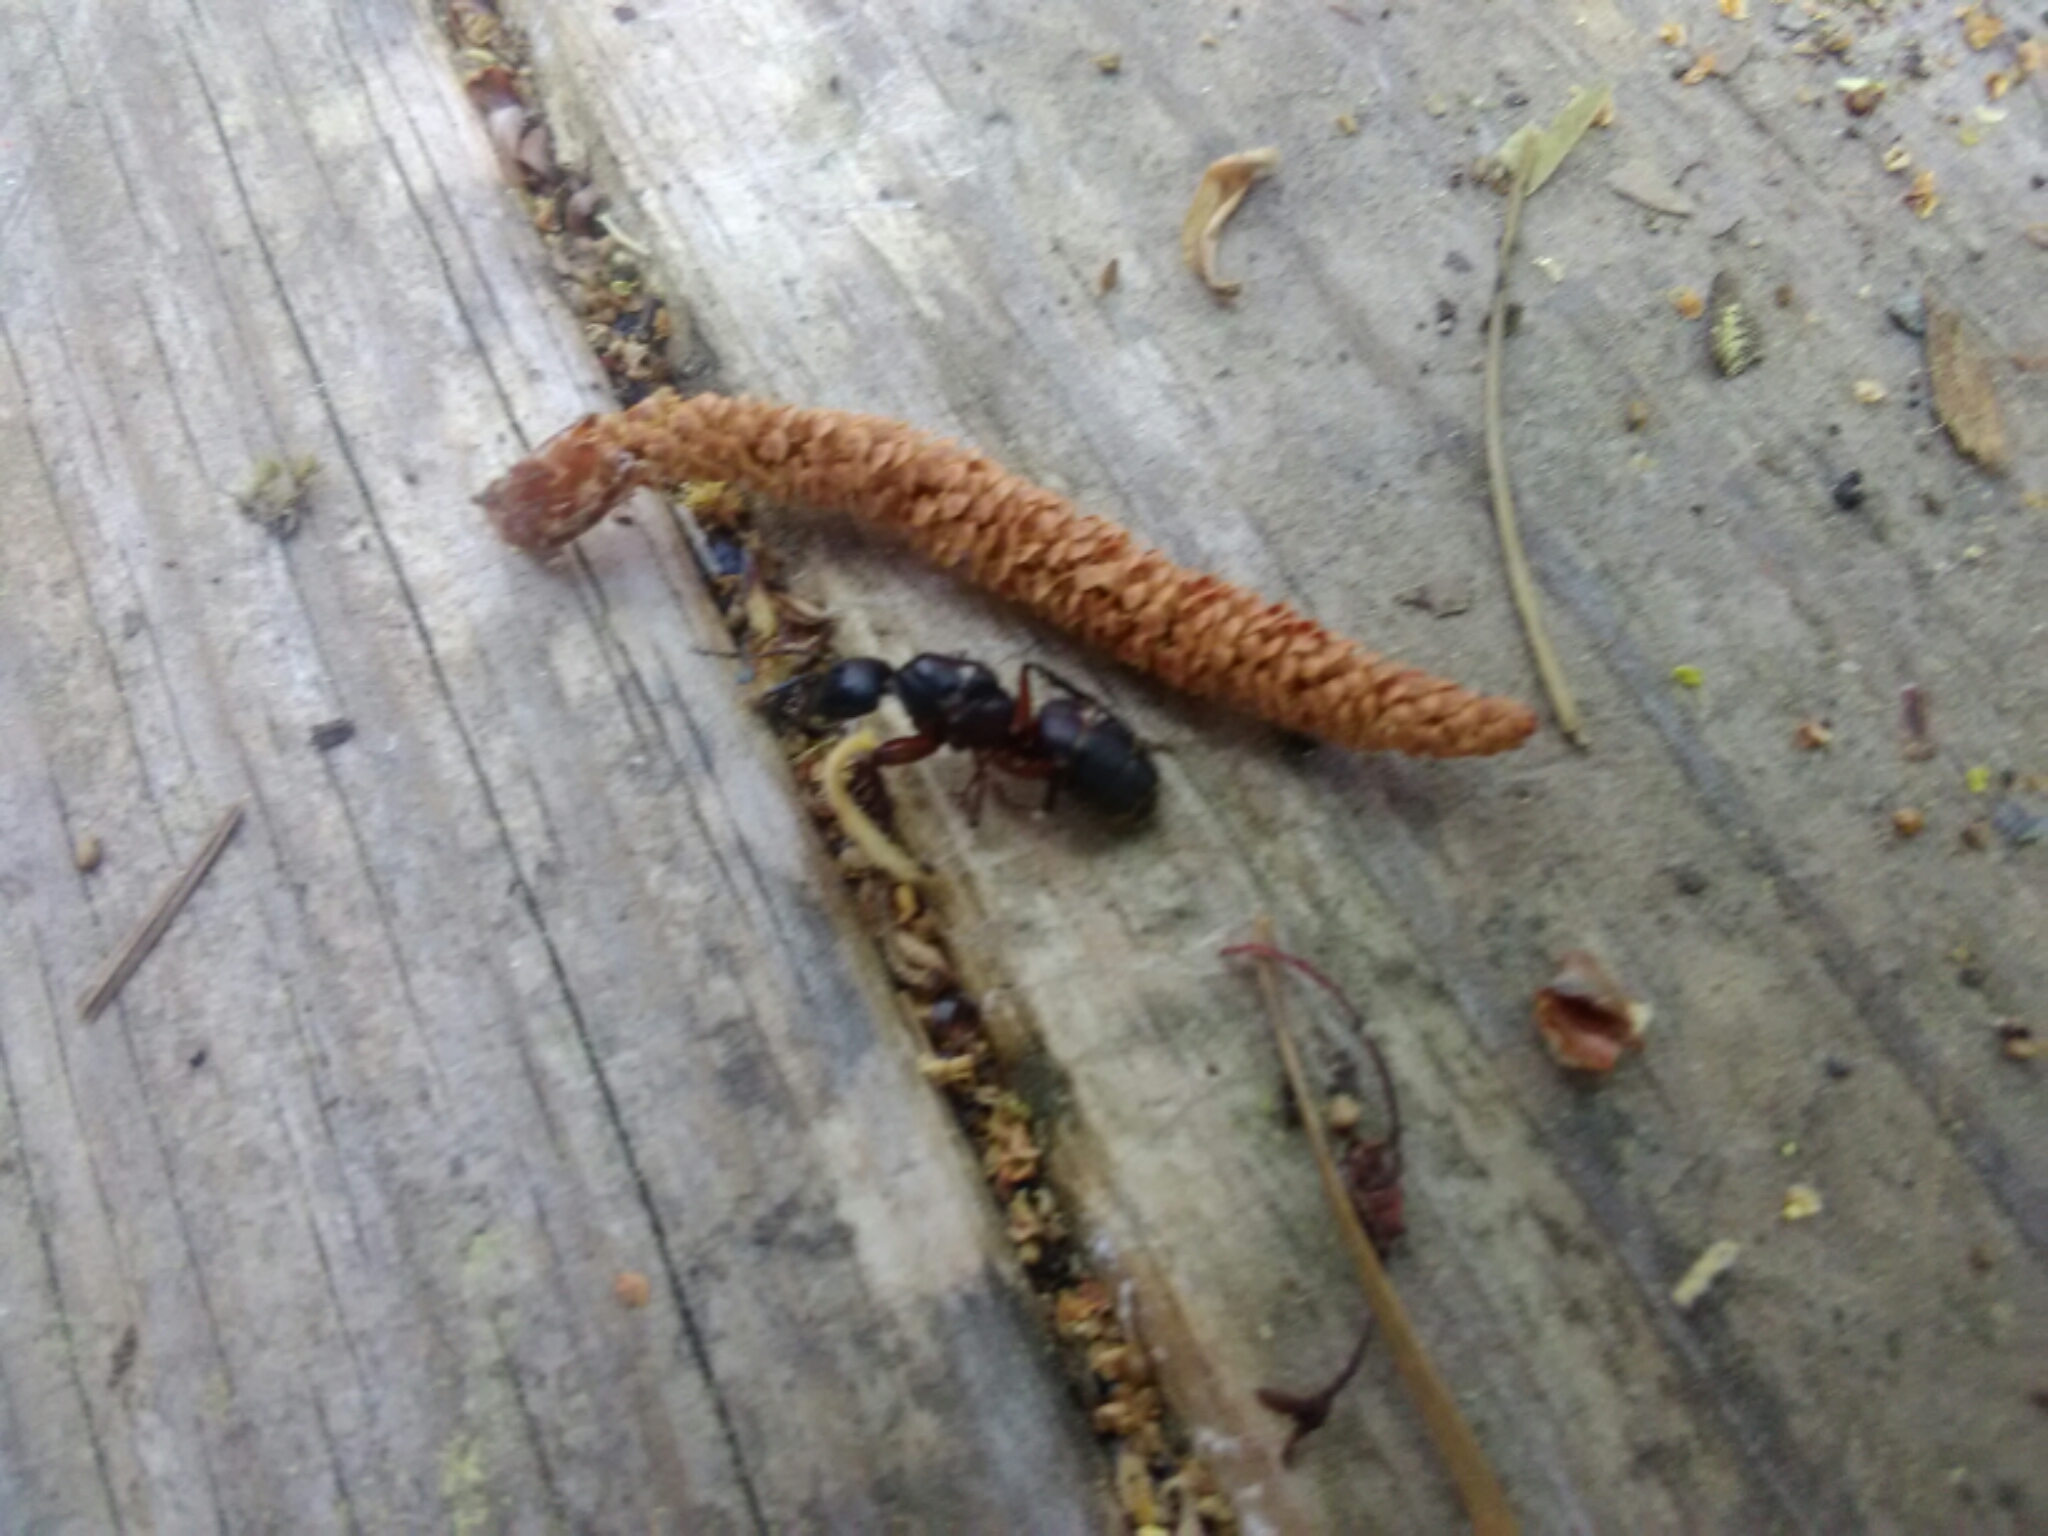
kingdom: Animalia
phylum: Arthropoda
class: Insecta
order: Hymenoptera
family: Formicidae
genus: Camponotus
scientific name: Camponotus chromaiodes
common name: Red carpenter ant
